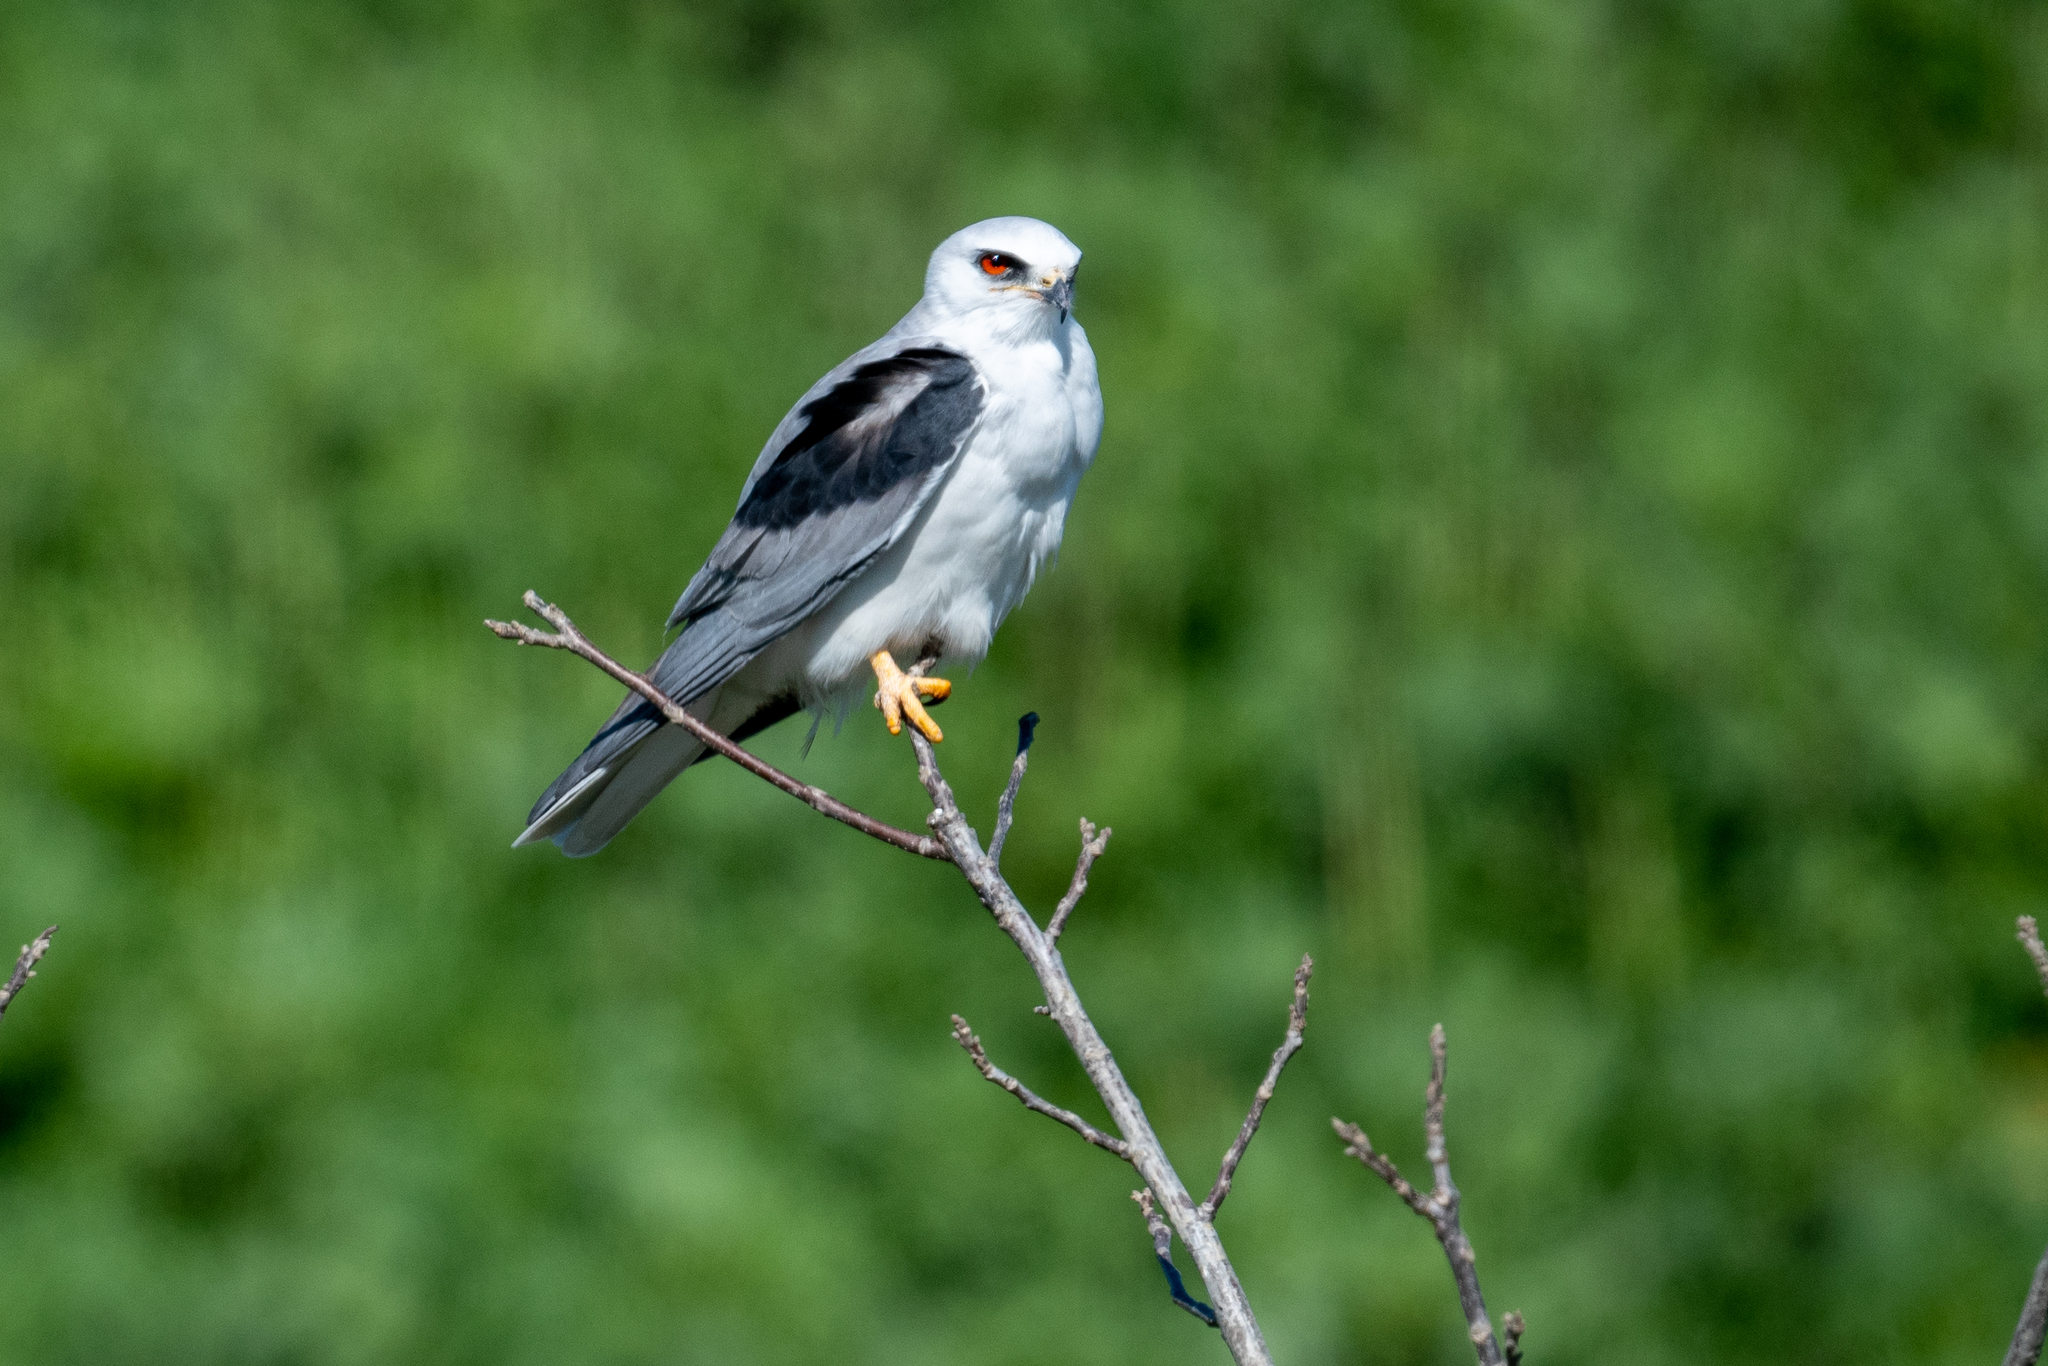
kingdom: Animalia
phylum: Chordata
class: Aves
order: Accipitriformes
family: Accipitridae
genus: Elanus
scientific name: Elanus leucurus
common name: White-tailed kite
